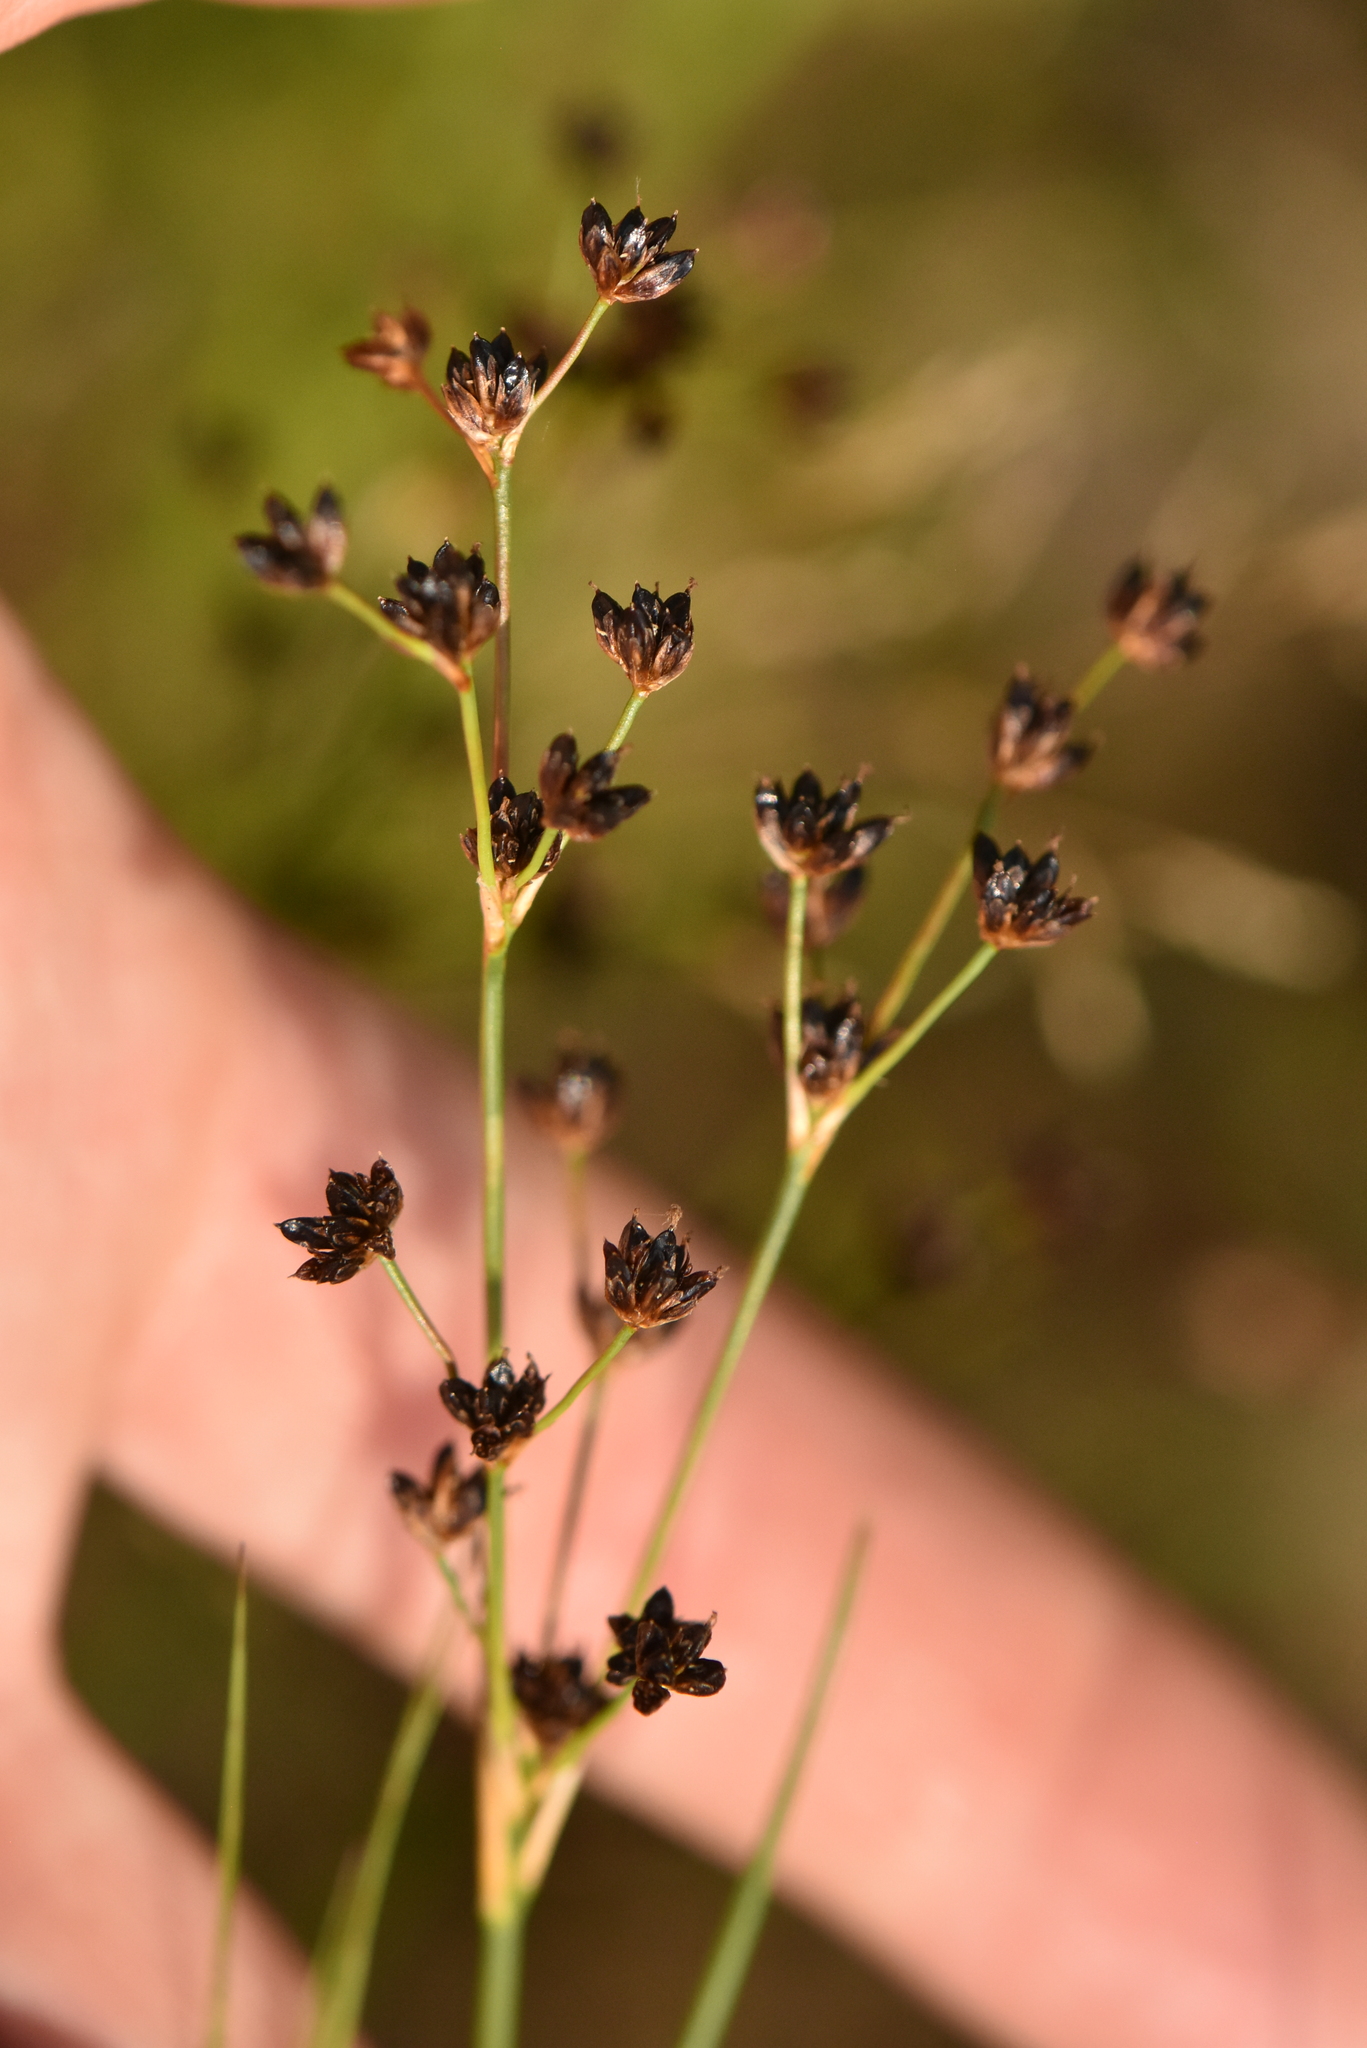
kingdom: Plantae
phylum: Tracheophyta
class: Liliopsida
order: Poales
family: Juncaceae
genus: Juncus
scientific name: Juncus alpinoarticulatus
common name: Alpine rush
